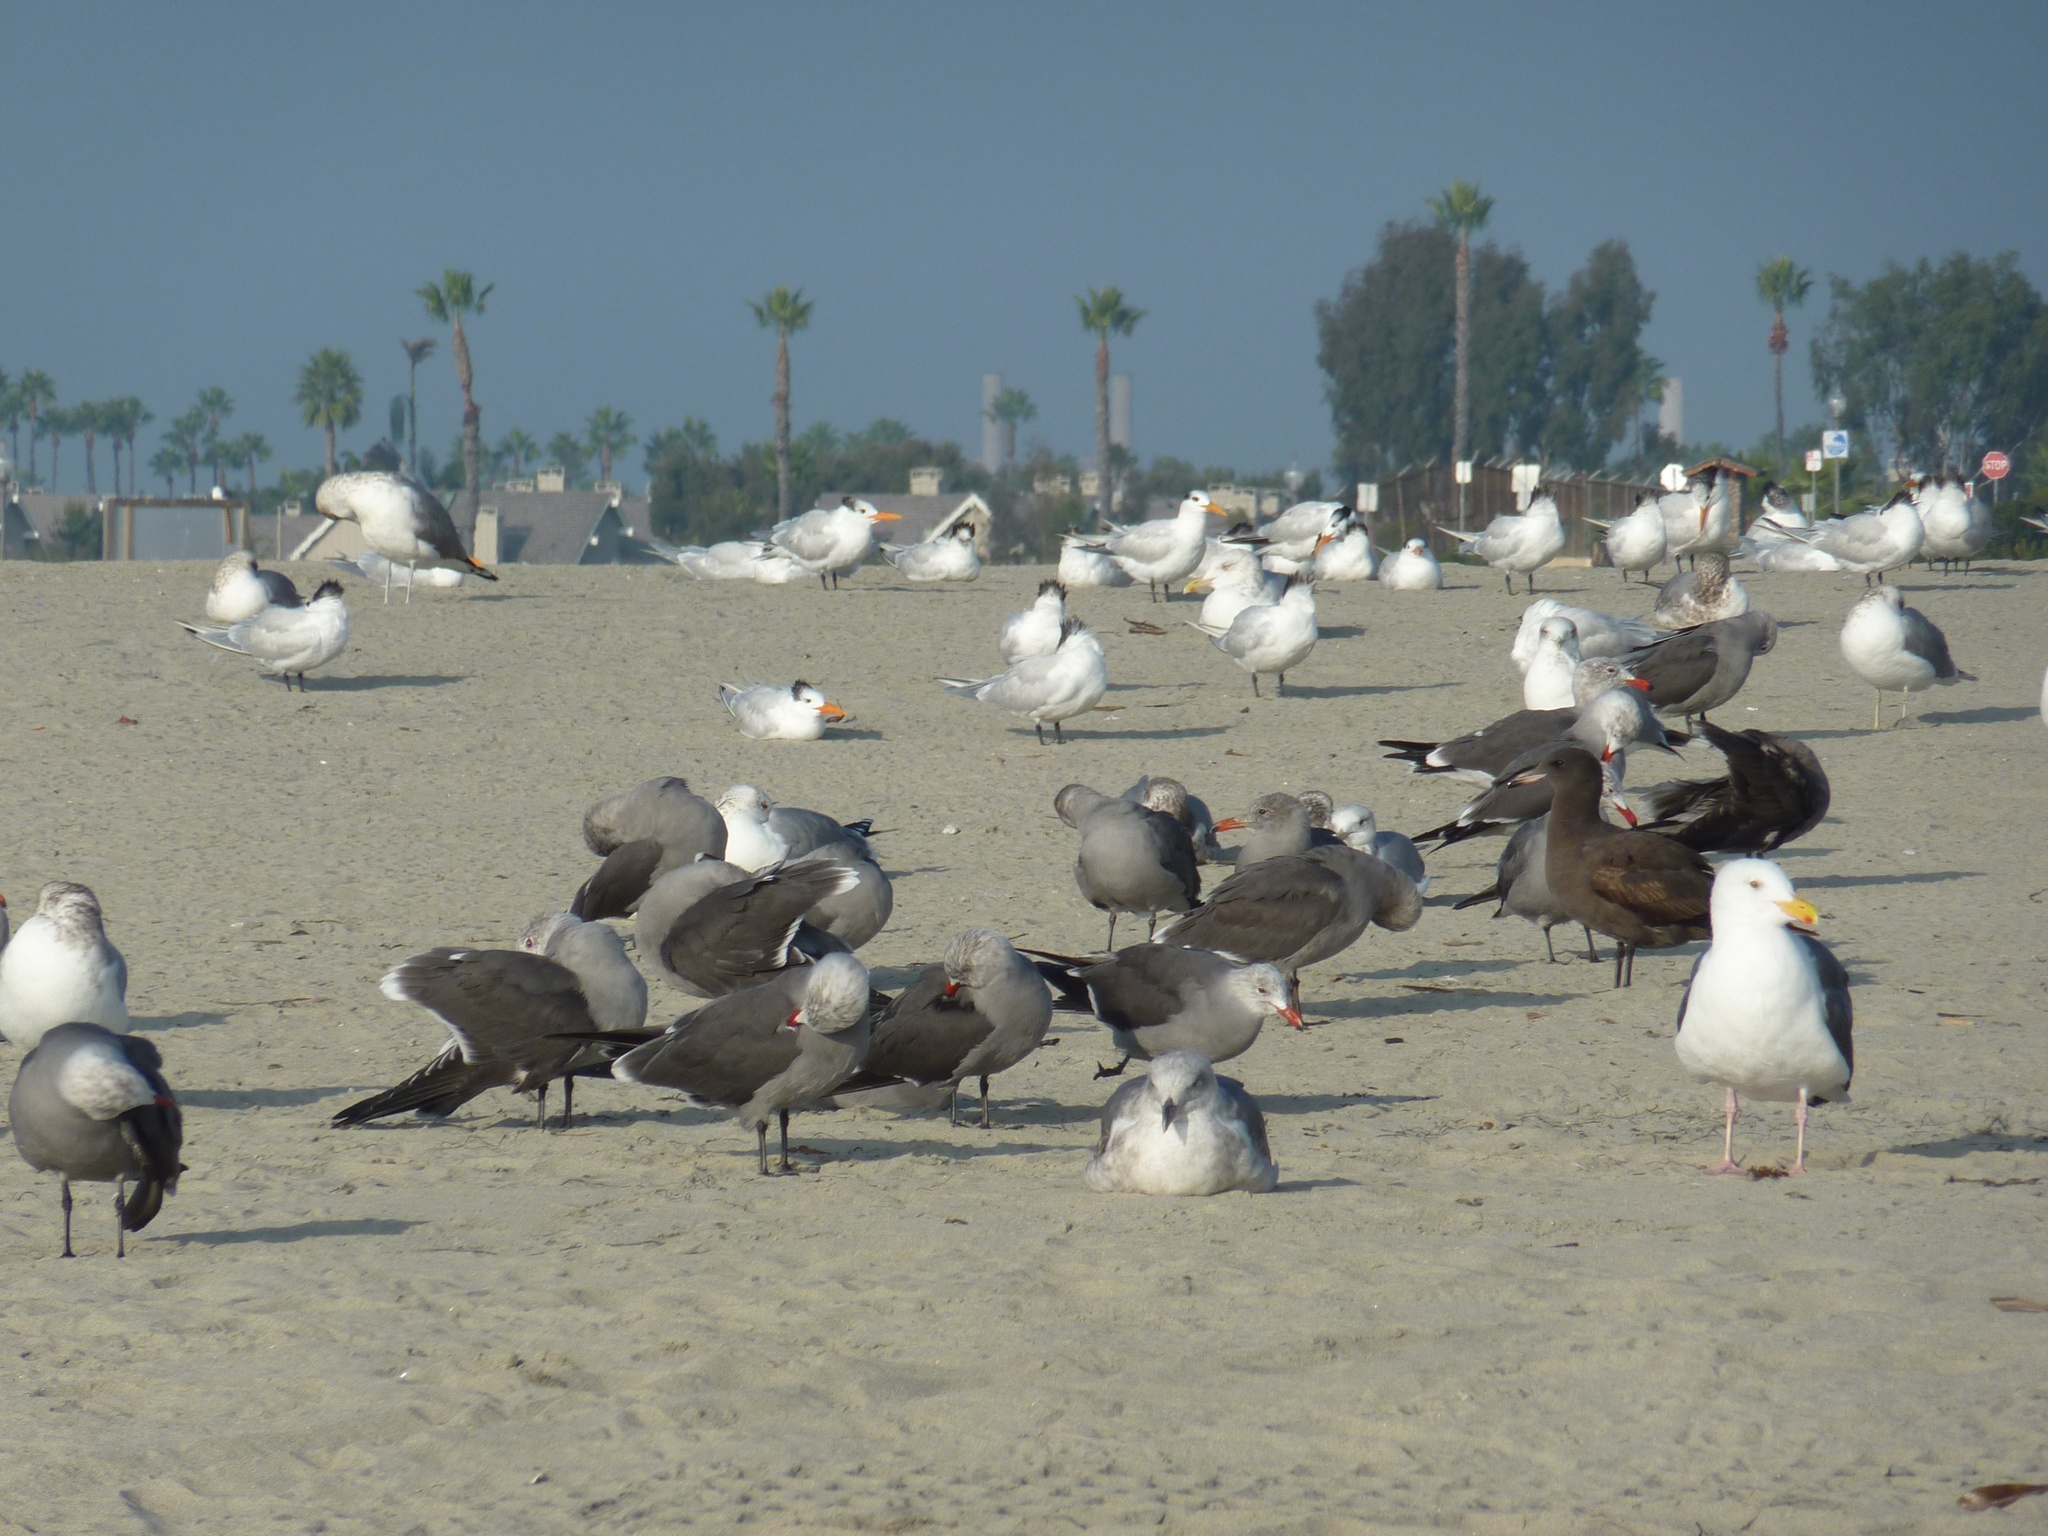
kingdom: Animalia
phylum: Chordata
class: Aves
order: Charadriiformes
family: Laridae
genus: Larus
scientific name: Larus heermanni
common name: Heermann's gull
